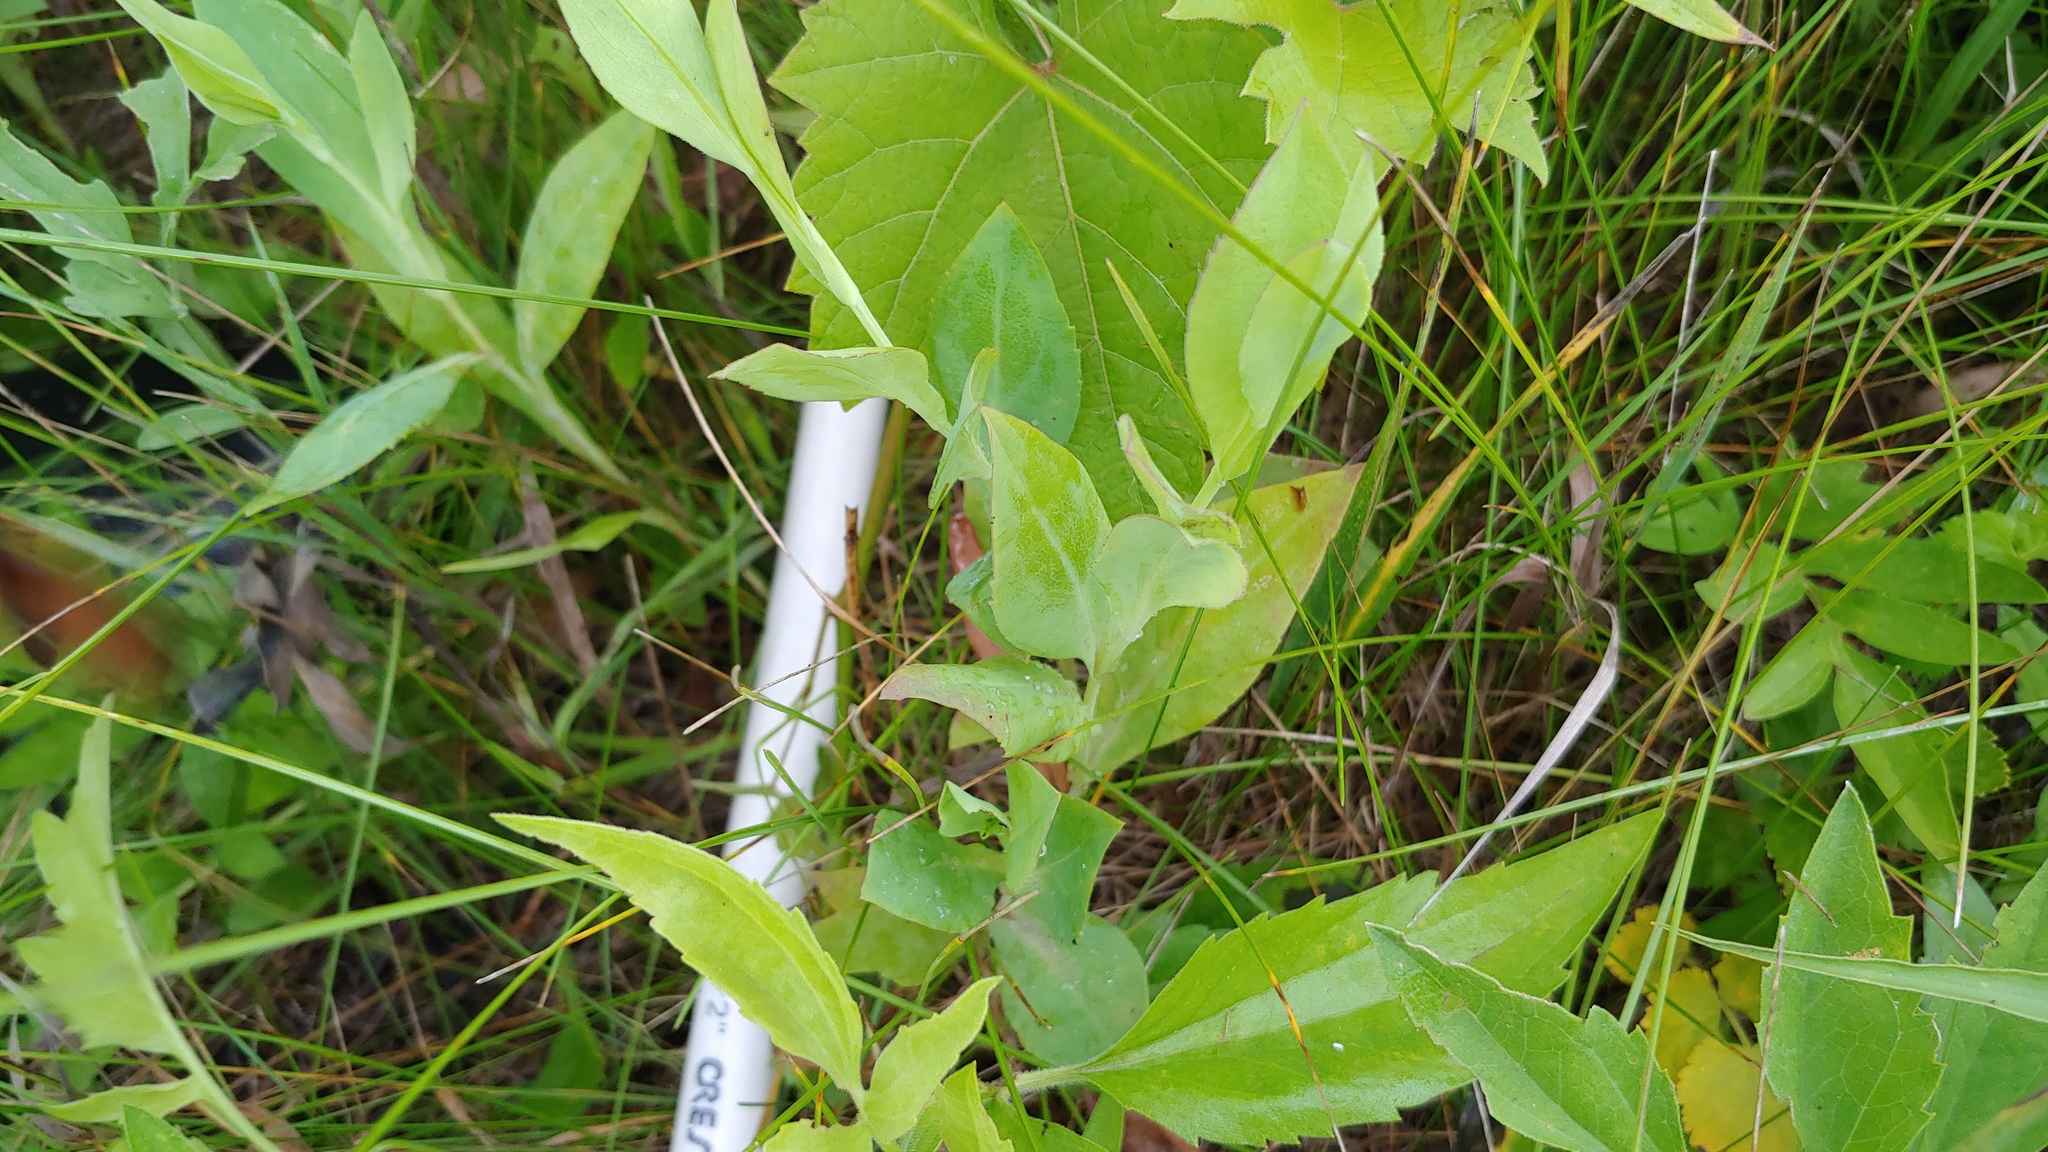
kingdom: Plantae
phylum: Tracheophyta
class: Magnoliopsida
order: Asterales
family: Asteraceae
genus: Symphyotrichum
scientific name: Symphyotrichum laeve
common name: Glaucous aster
